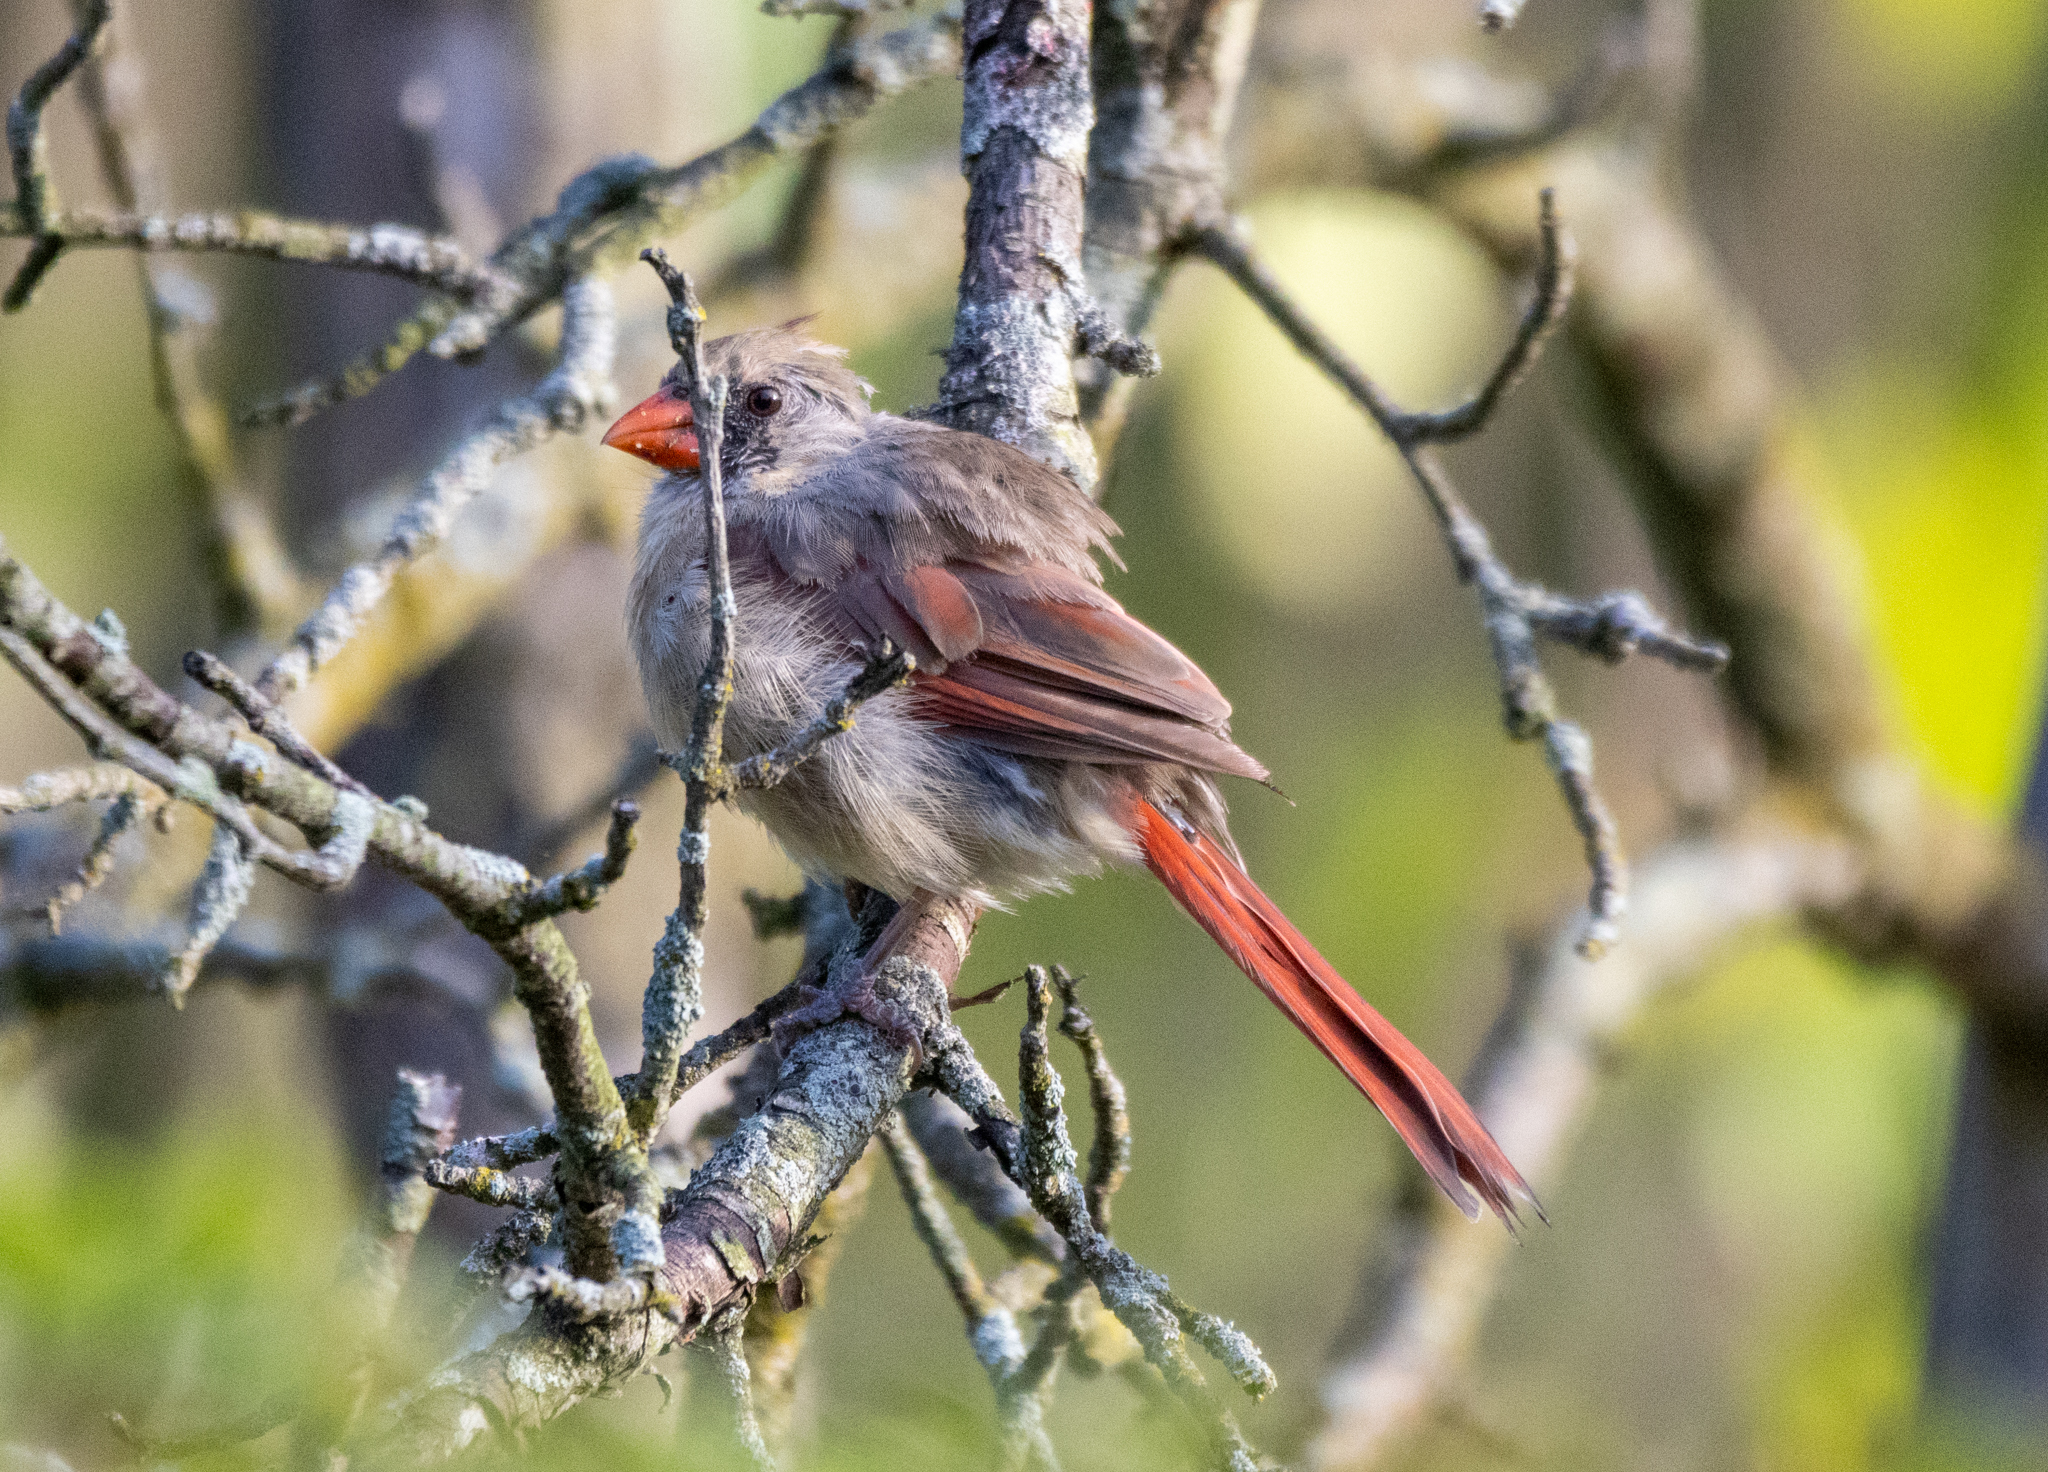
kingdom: Animalia
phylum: Chordata
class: Aves
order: Passeriformes
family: Cardinalidae
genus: Cardinalis
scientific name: Cardinalis cardinalis
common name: Northern cardinal
